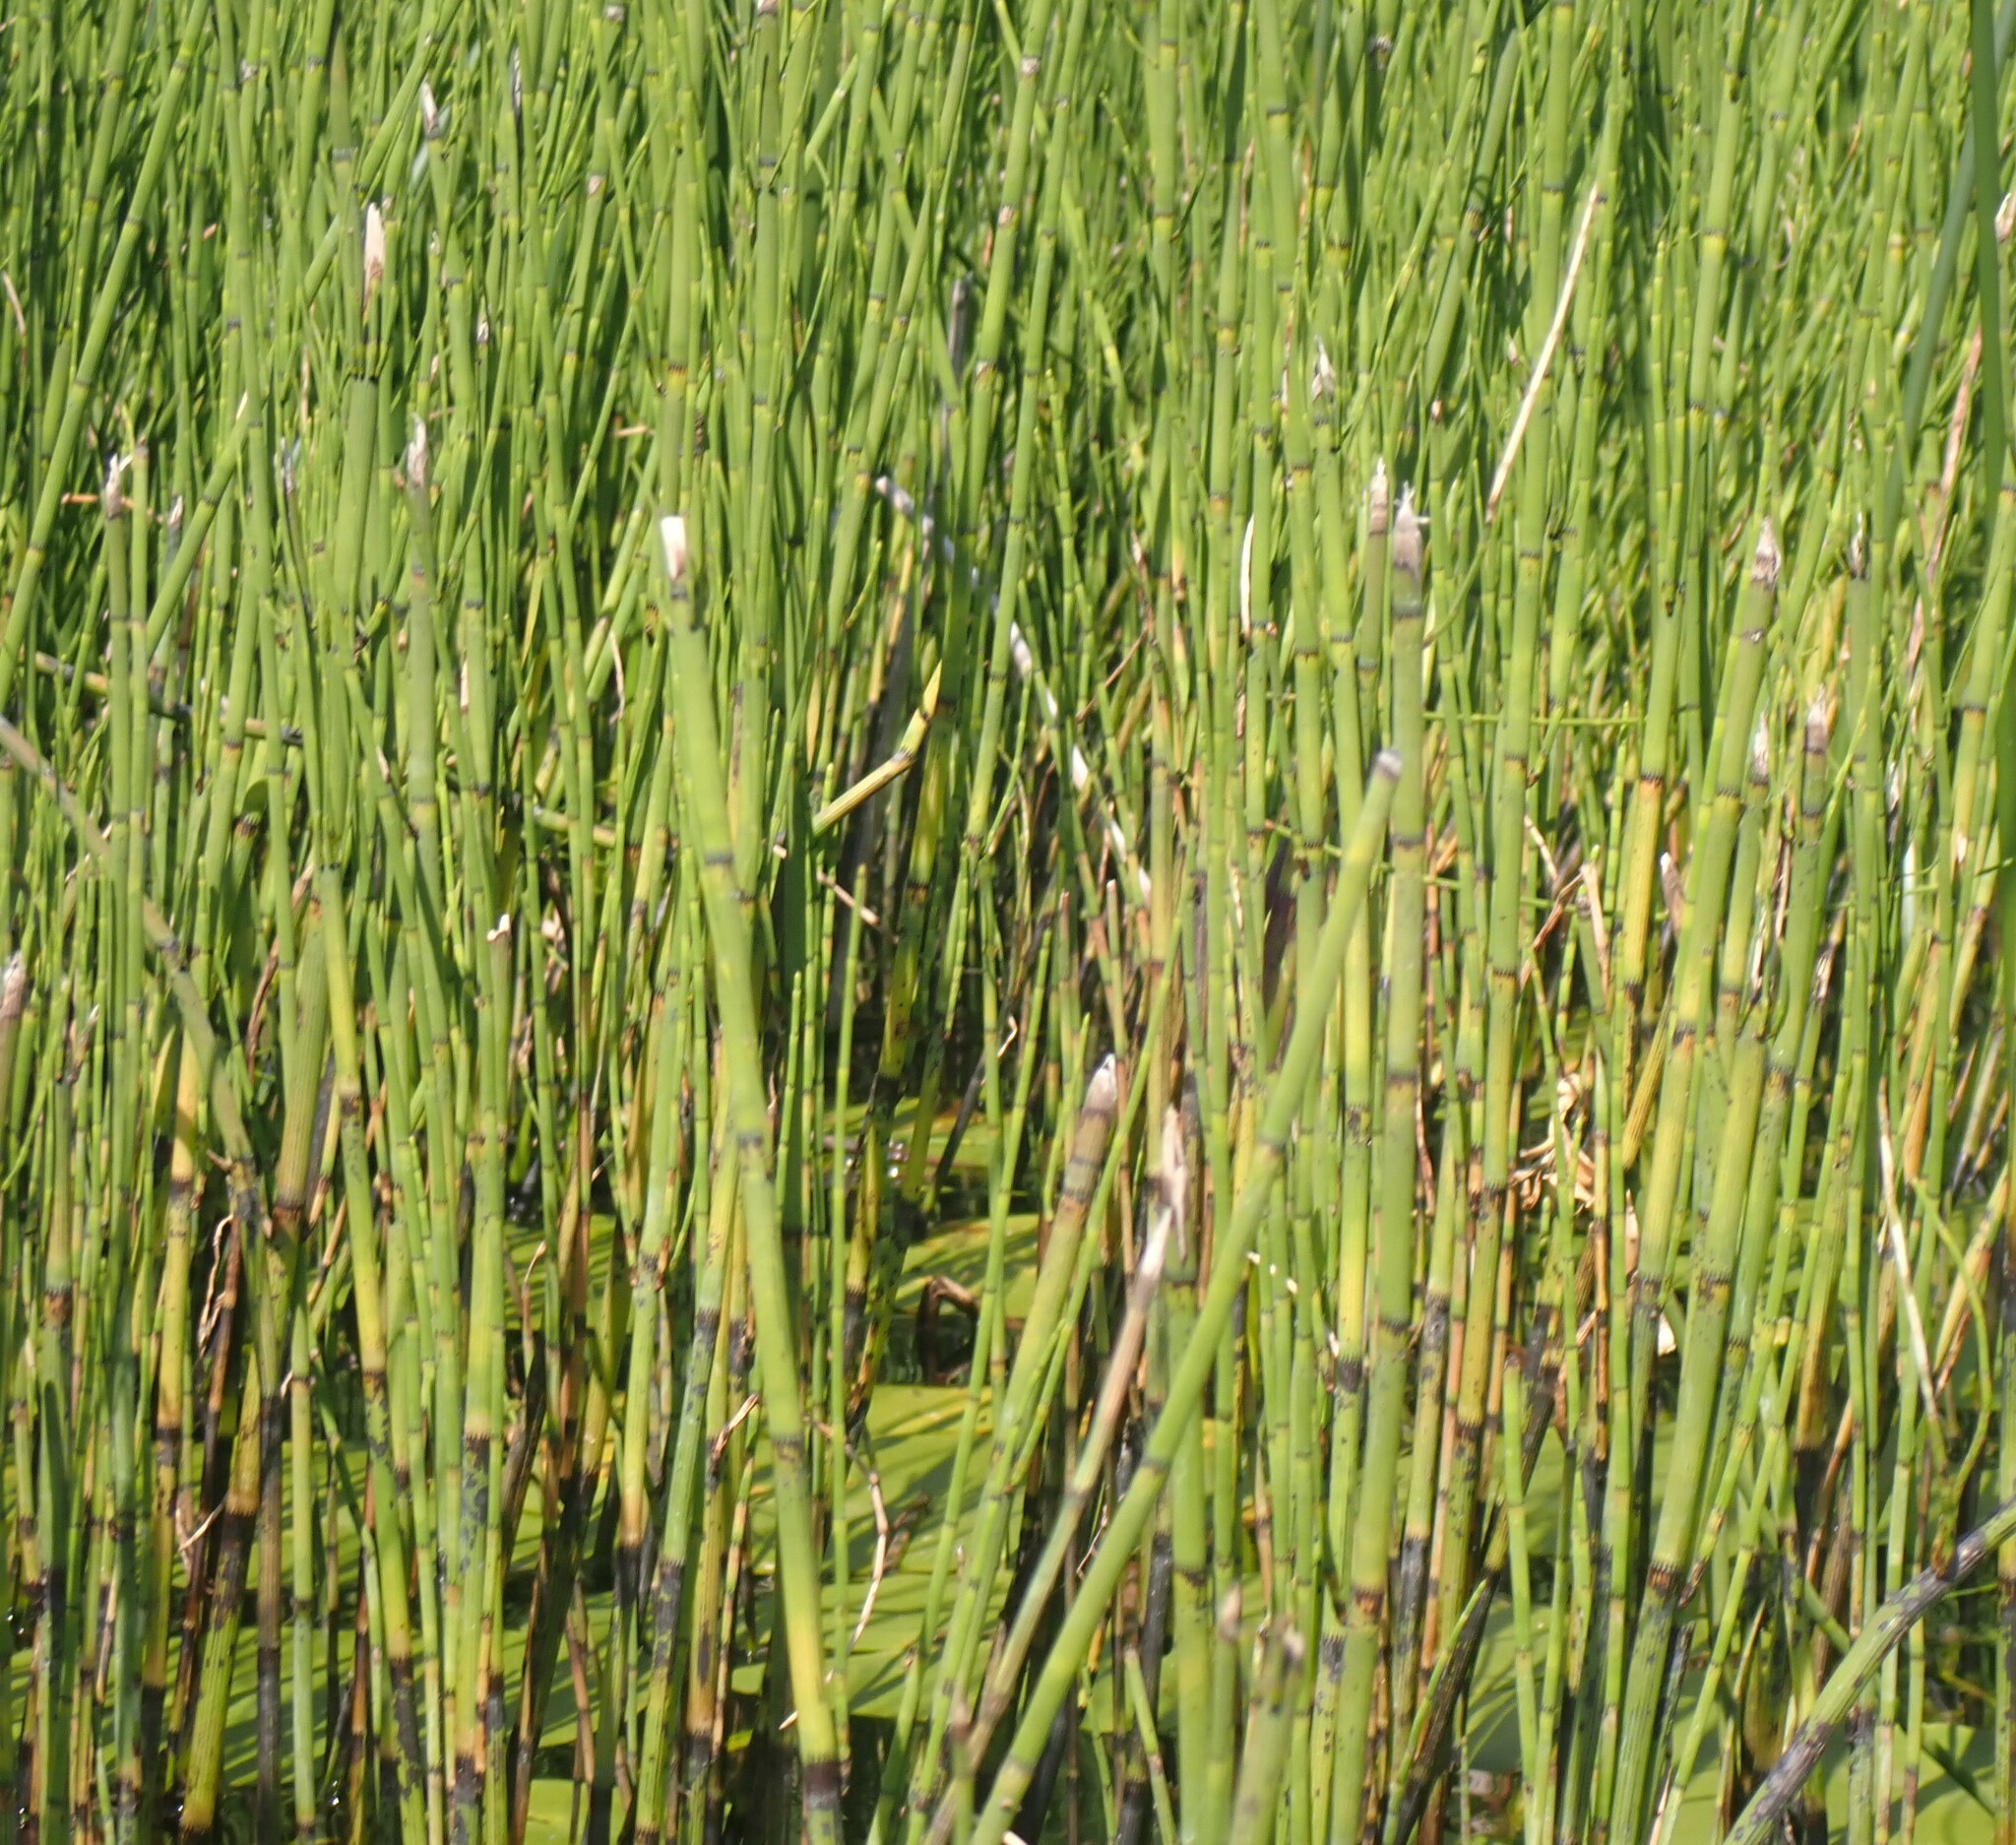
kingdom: Plantae
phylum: Tracheophyta
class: Polypodiopsida
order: Equisetales
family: Equisetaceae
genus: Equisetum
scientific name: Equisetum fluviatile
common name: Water horsetail
